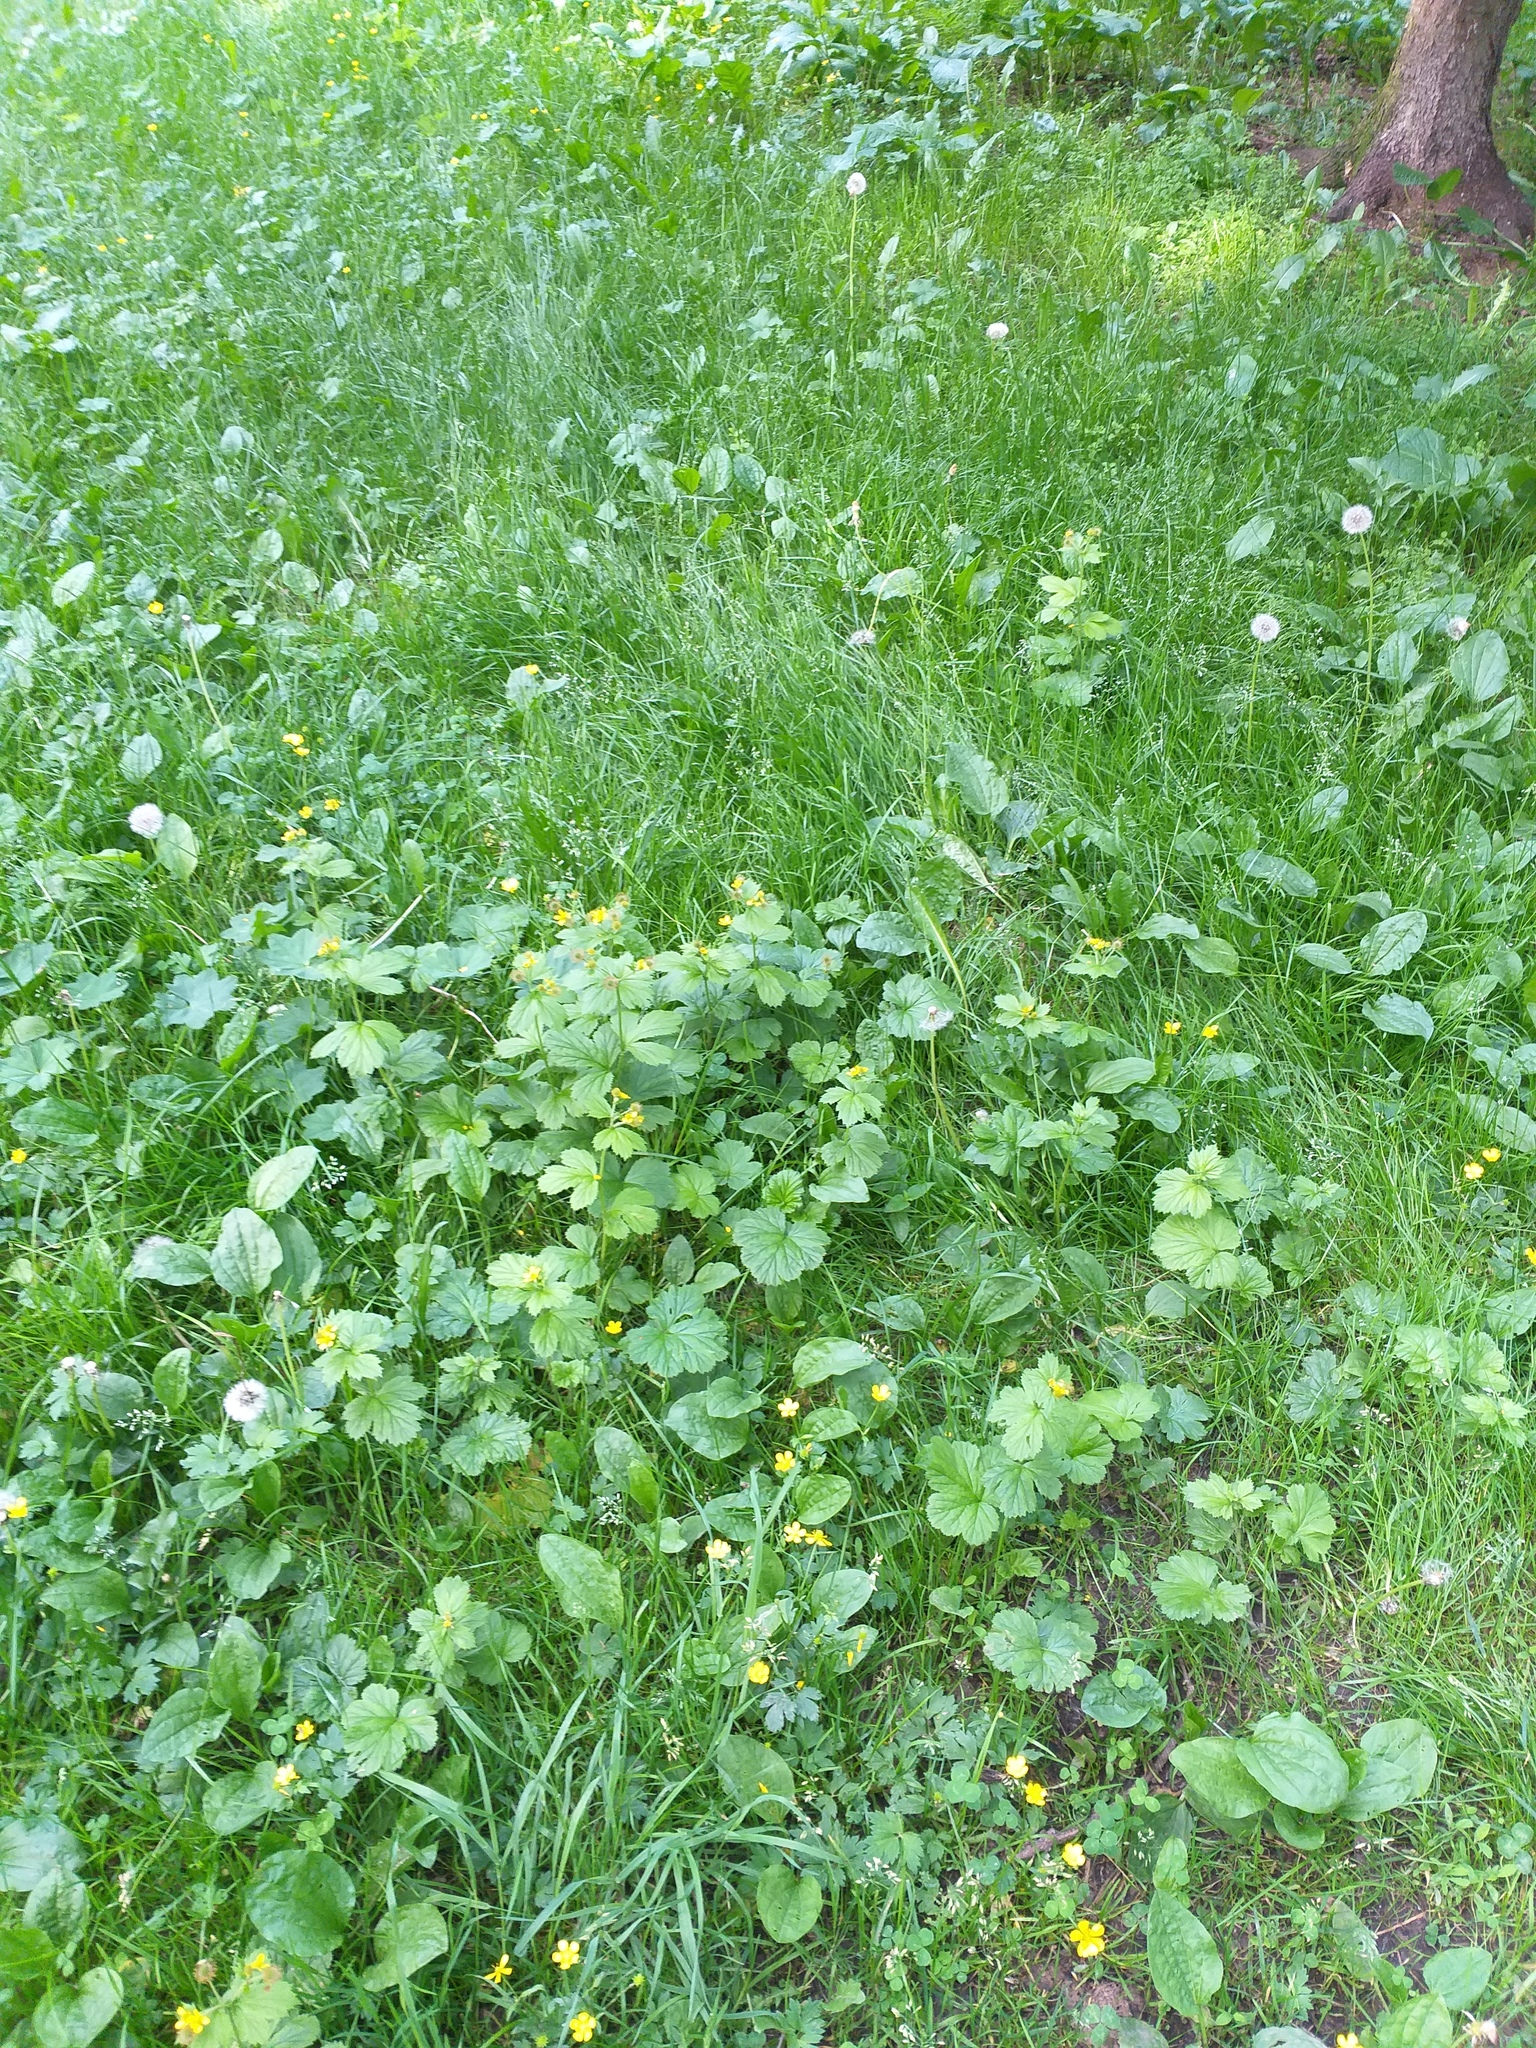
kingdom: Plantae
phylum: Tracheophyta
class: Magnoliopsida
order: Rosales
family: Rosaceae
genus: Geum
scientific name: Geum macrophyllum
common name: Large-leaved avens
